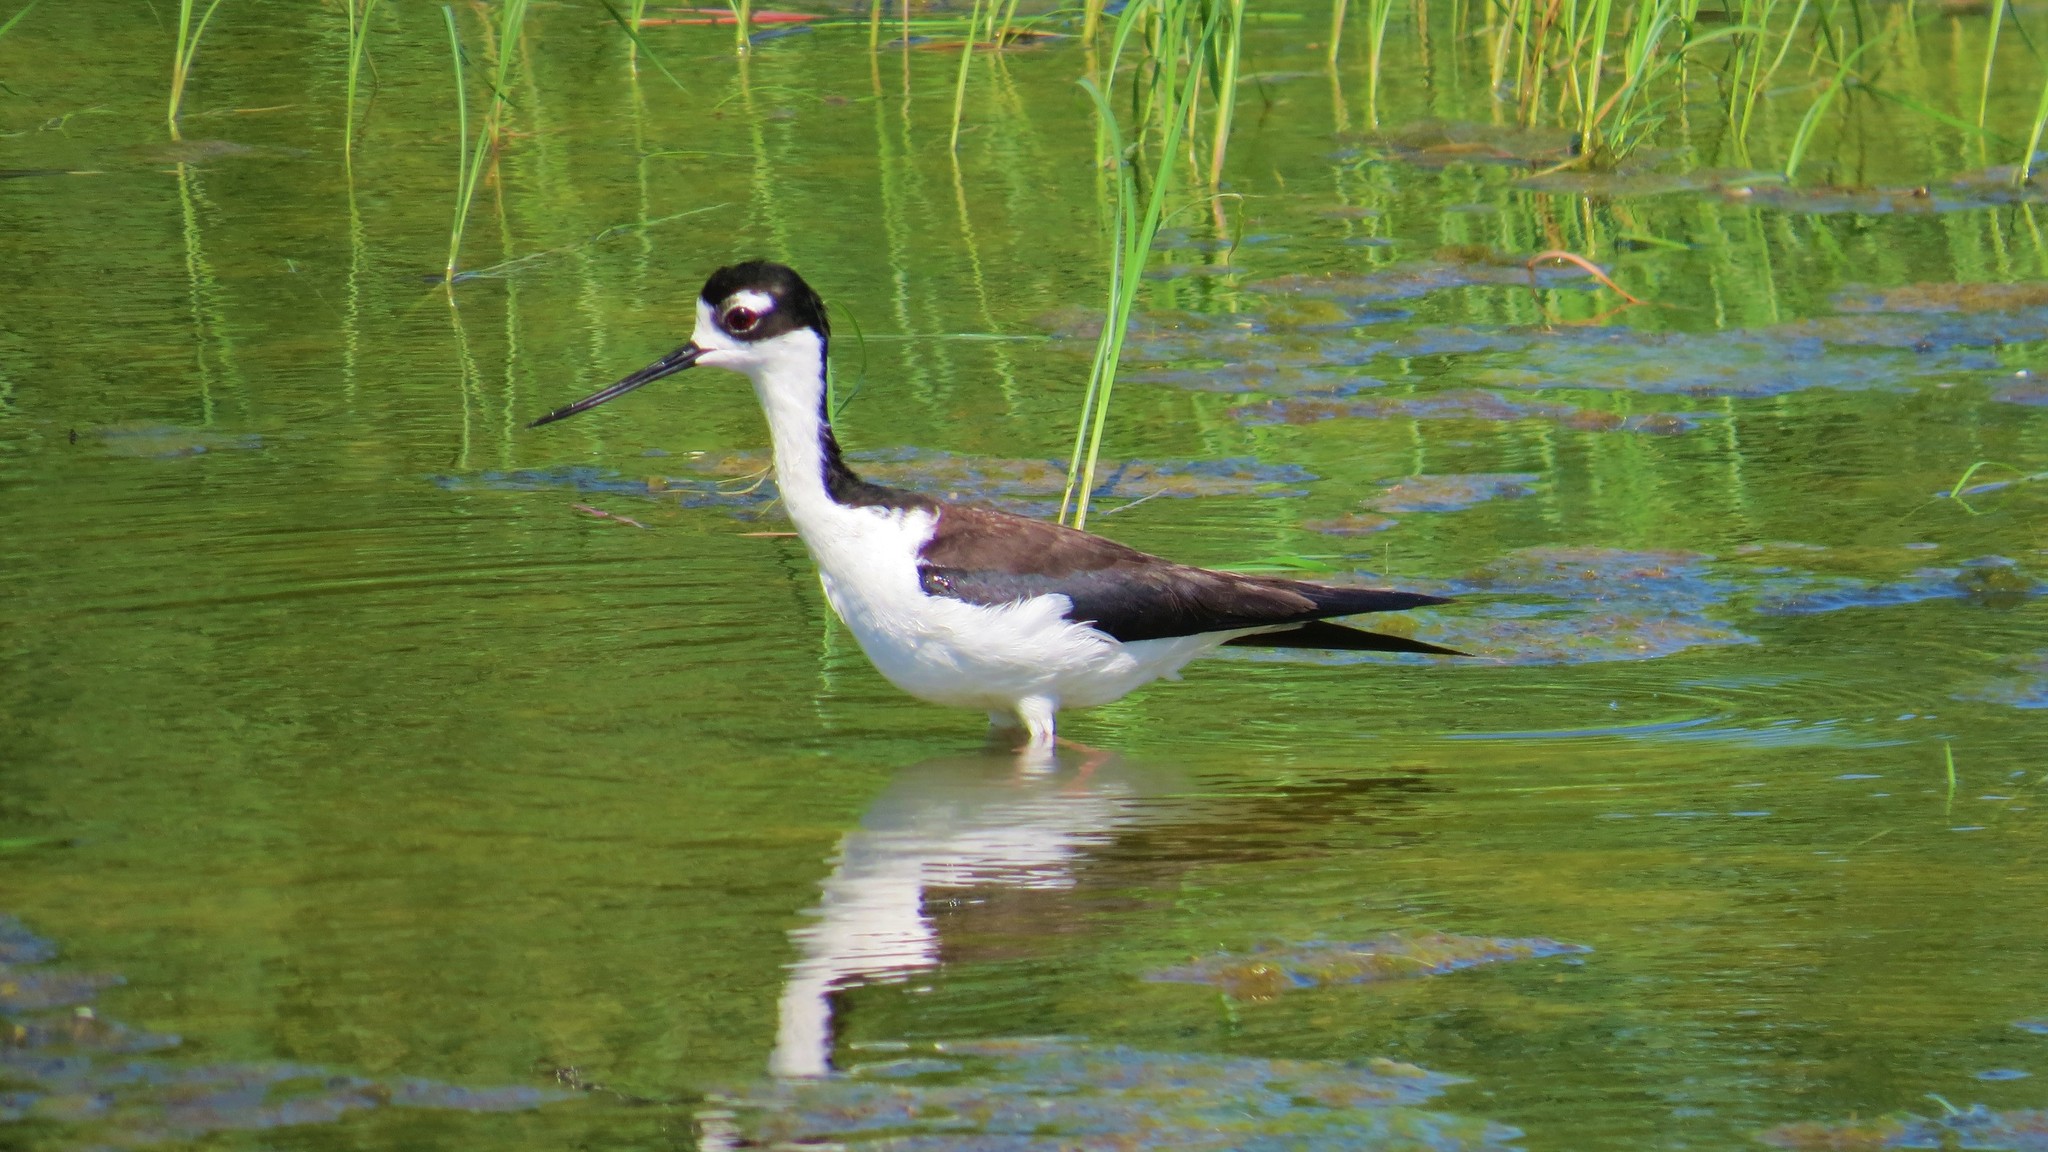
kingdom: Animalia
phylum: Chordata
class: Aves
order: Charadriiformes
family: Recurvirostridae
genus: Himantopus
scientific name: Himantopus mexicanus
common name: Black-necked stilt
